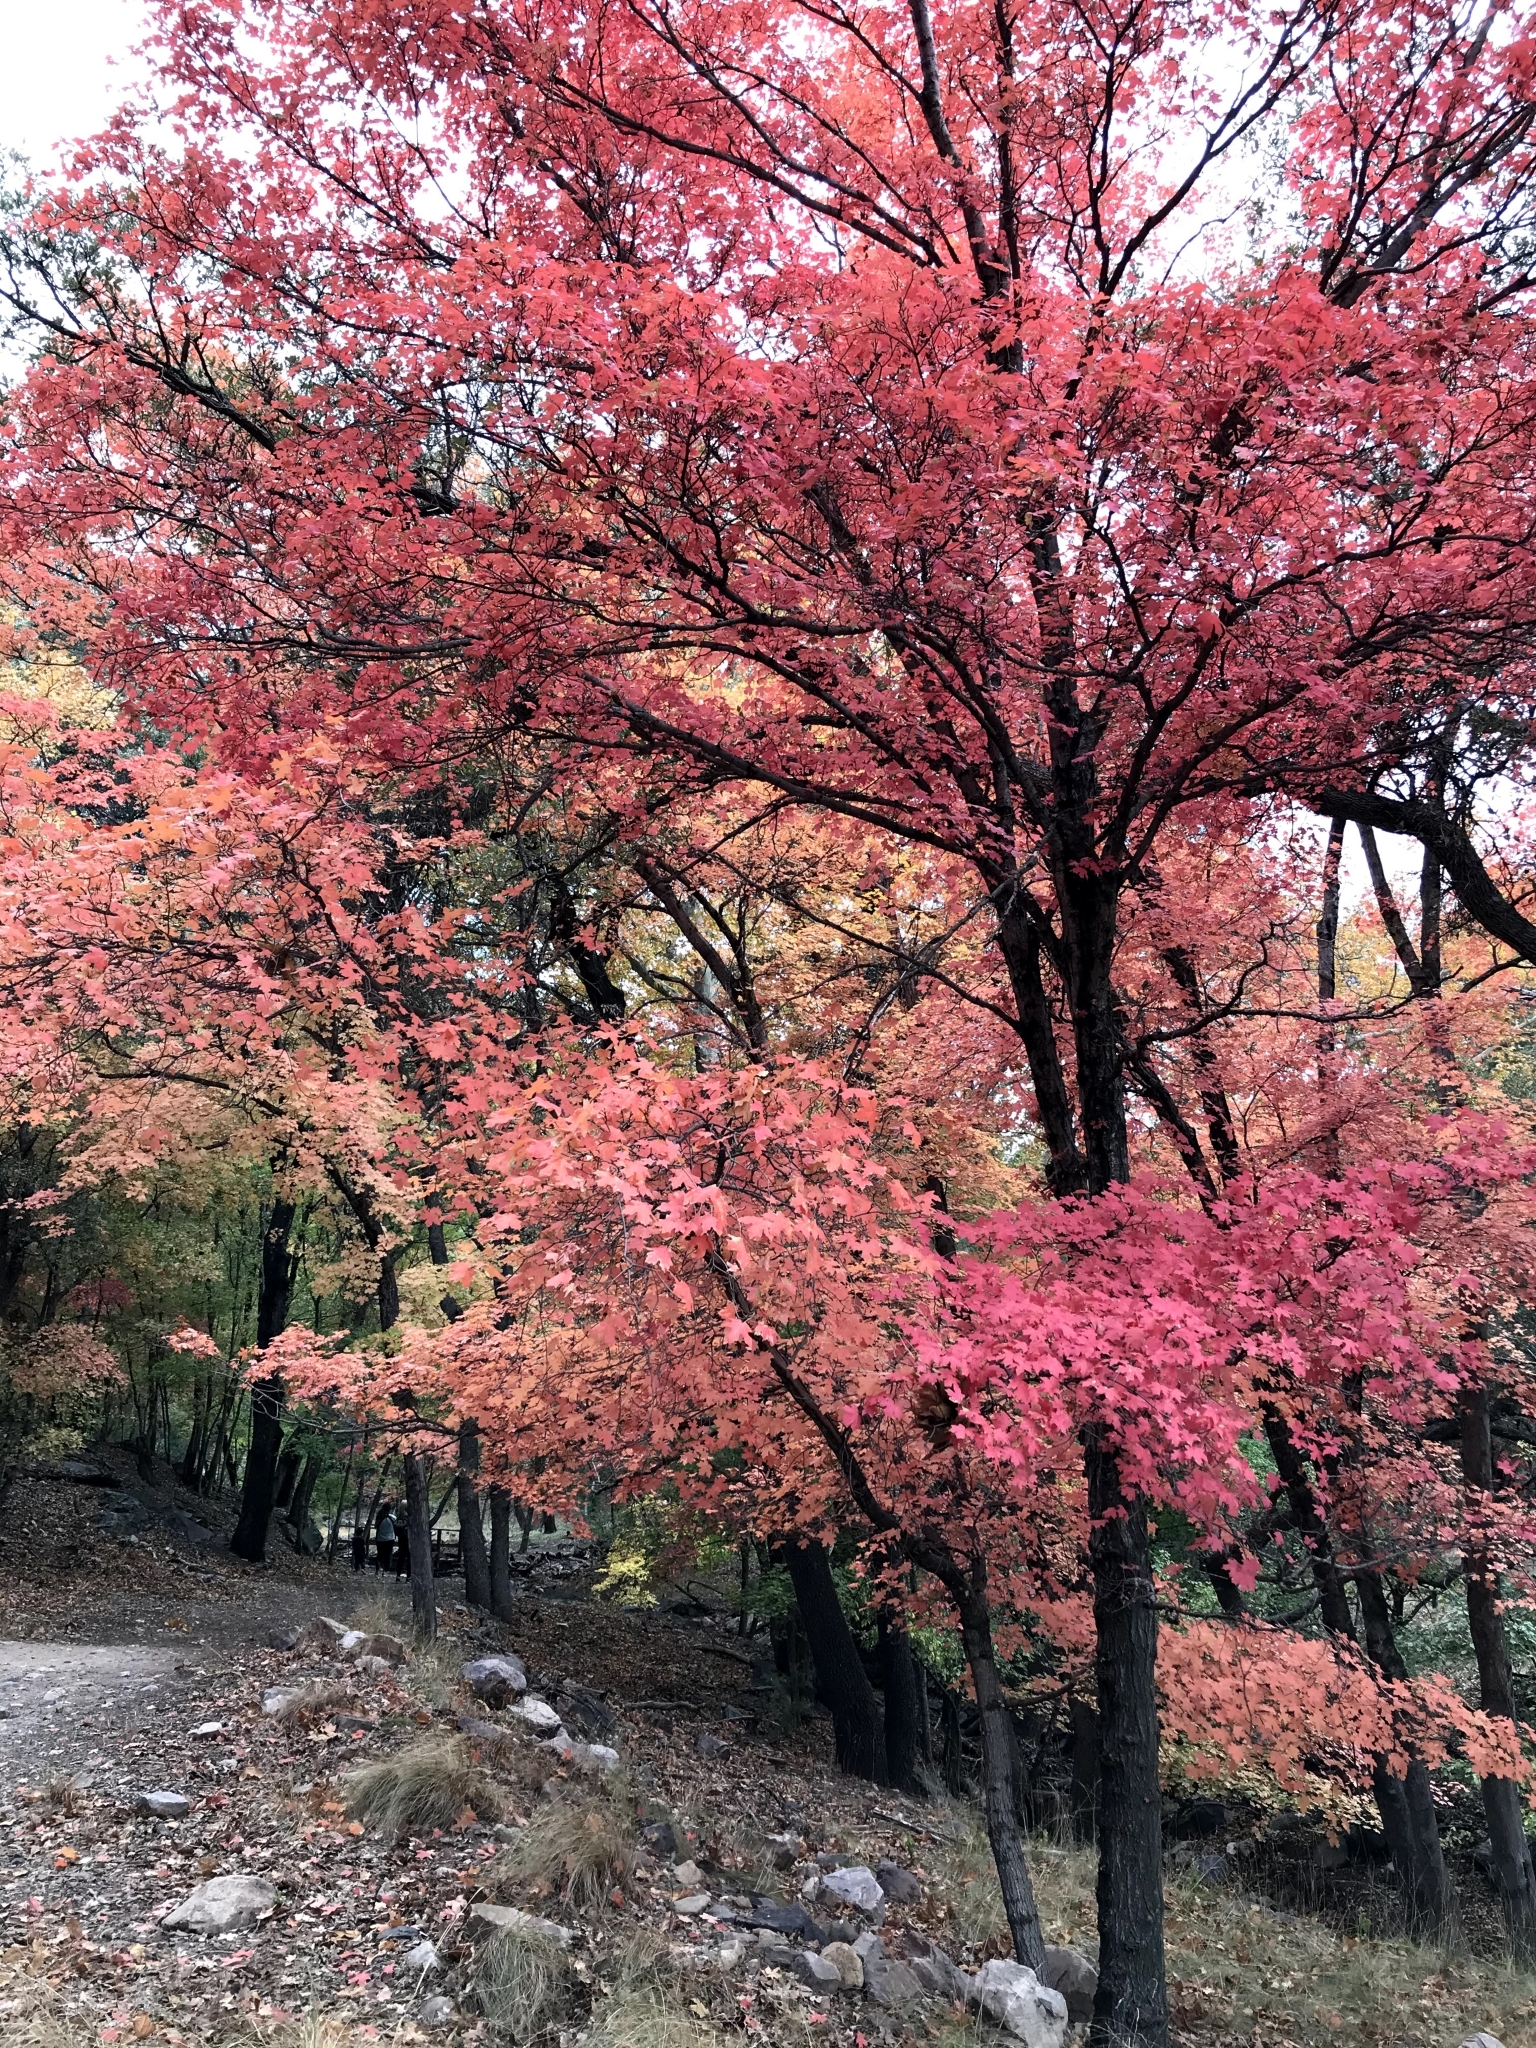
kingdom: Plantae
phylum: Tracheophyta
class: Magnoliopsida
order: Sapindales
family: Sapindaceae
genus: Acer
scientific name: Acer grandidentatum
